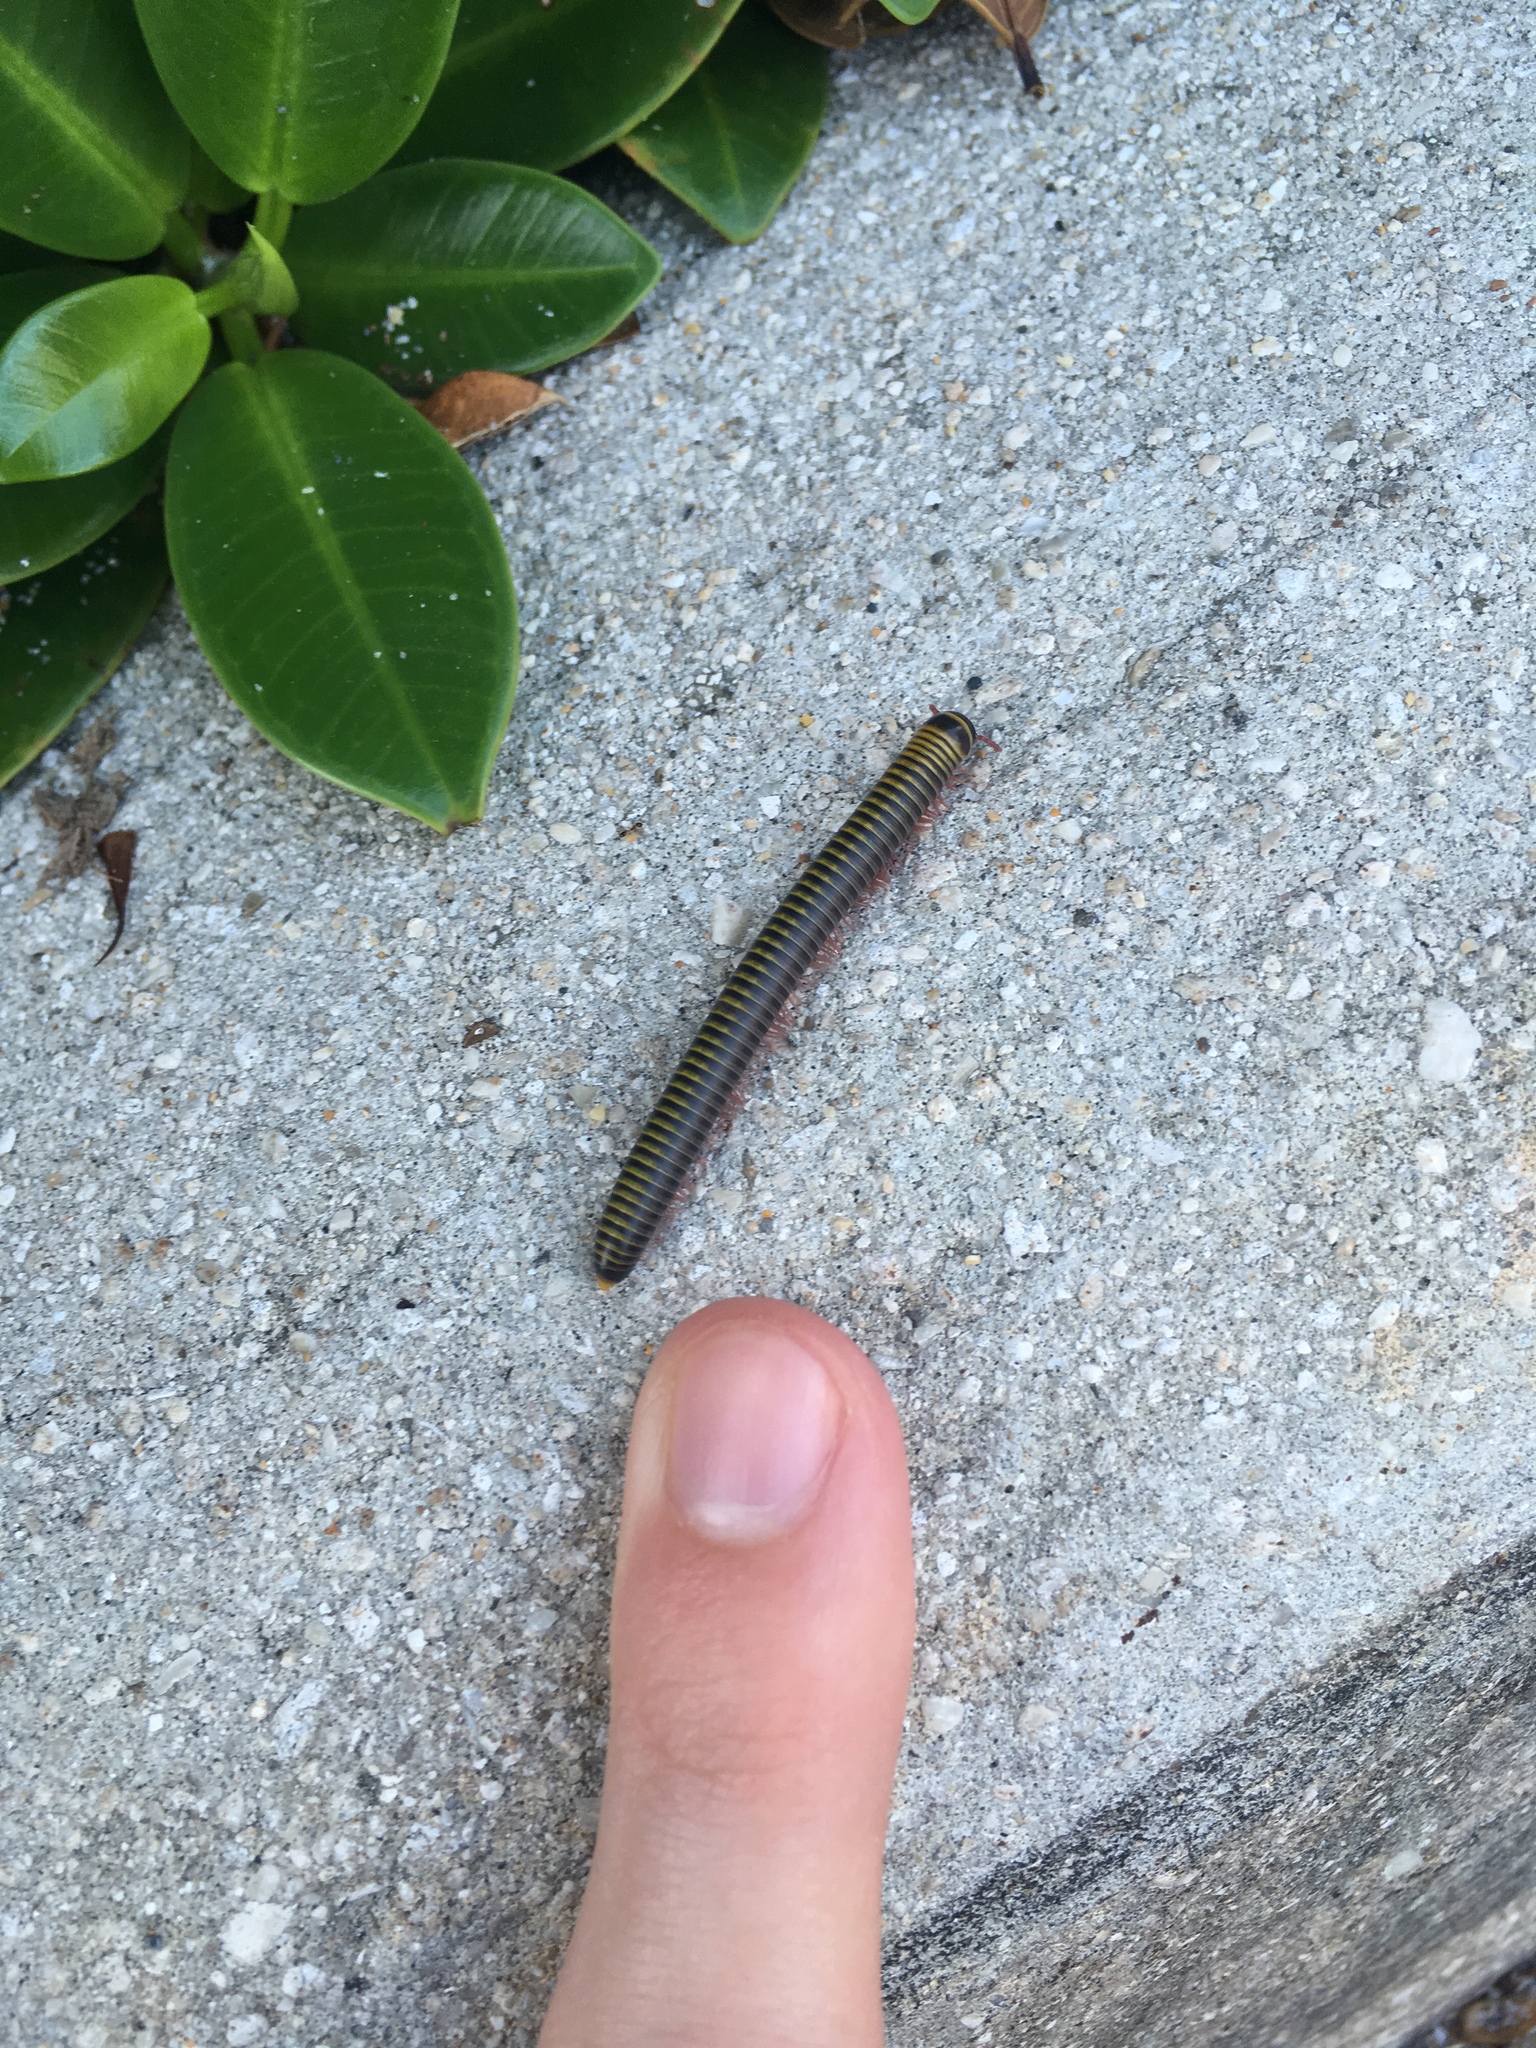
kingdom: Animalia
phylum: Arthropoda
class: Diplopoda
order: Spirobolida
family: Rhinocricidae
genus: Anadenobolus
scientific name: Anadenobolus monilicornis
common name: Caribbean millipede
